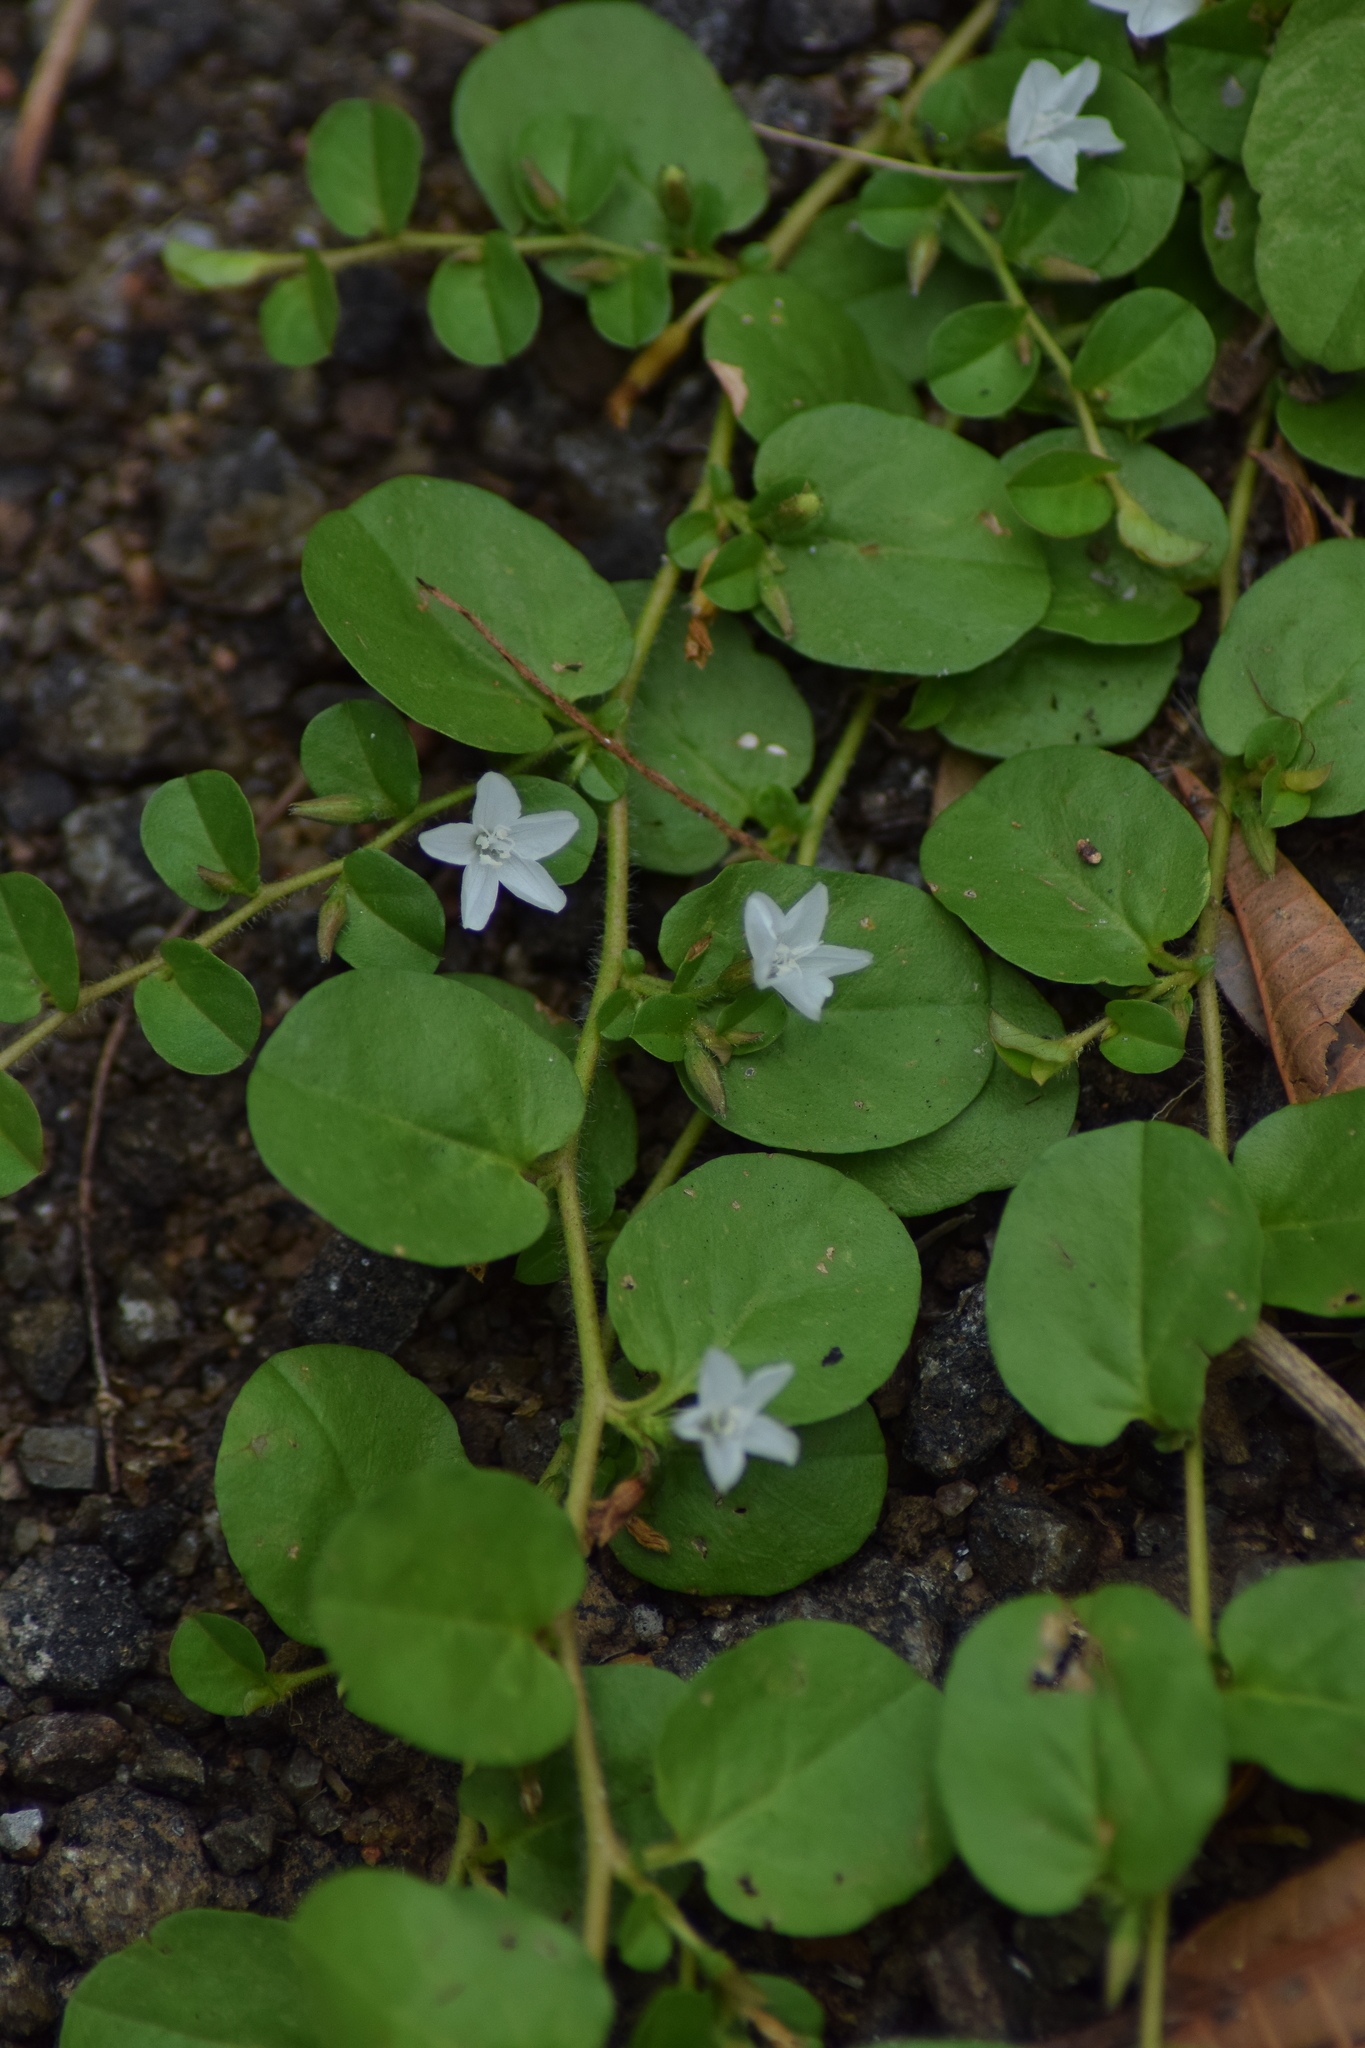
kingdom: Plantae
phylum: Tracheophyta
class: Magnoliopsida
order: Solanales
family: Convolvulaceae
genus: Evolvulus
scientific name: Evolvulus nummularius
